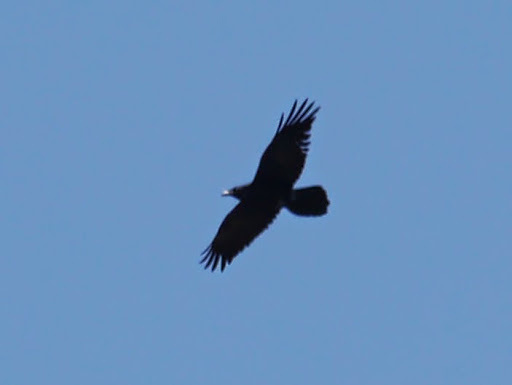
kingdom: Animalia
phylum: Chordata
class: Aves
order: Passeriformes
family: Corvidae
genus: Corvus
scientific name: Corvus corax
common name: Common raven
